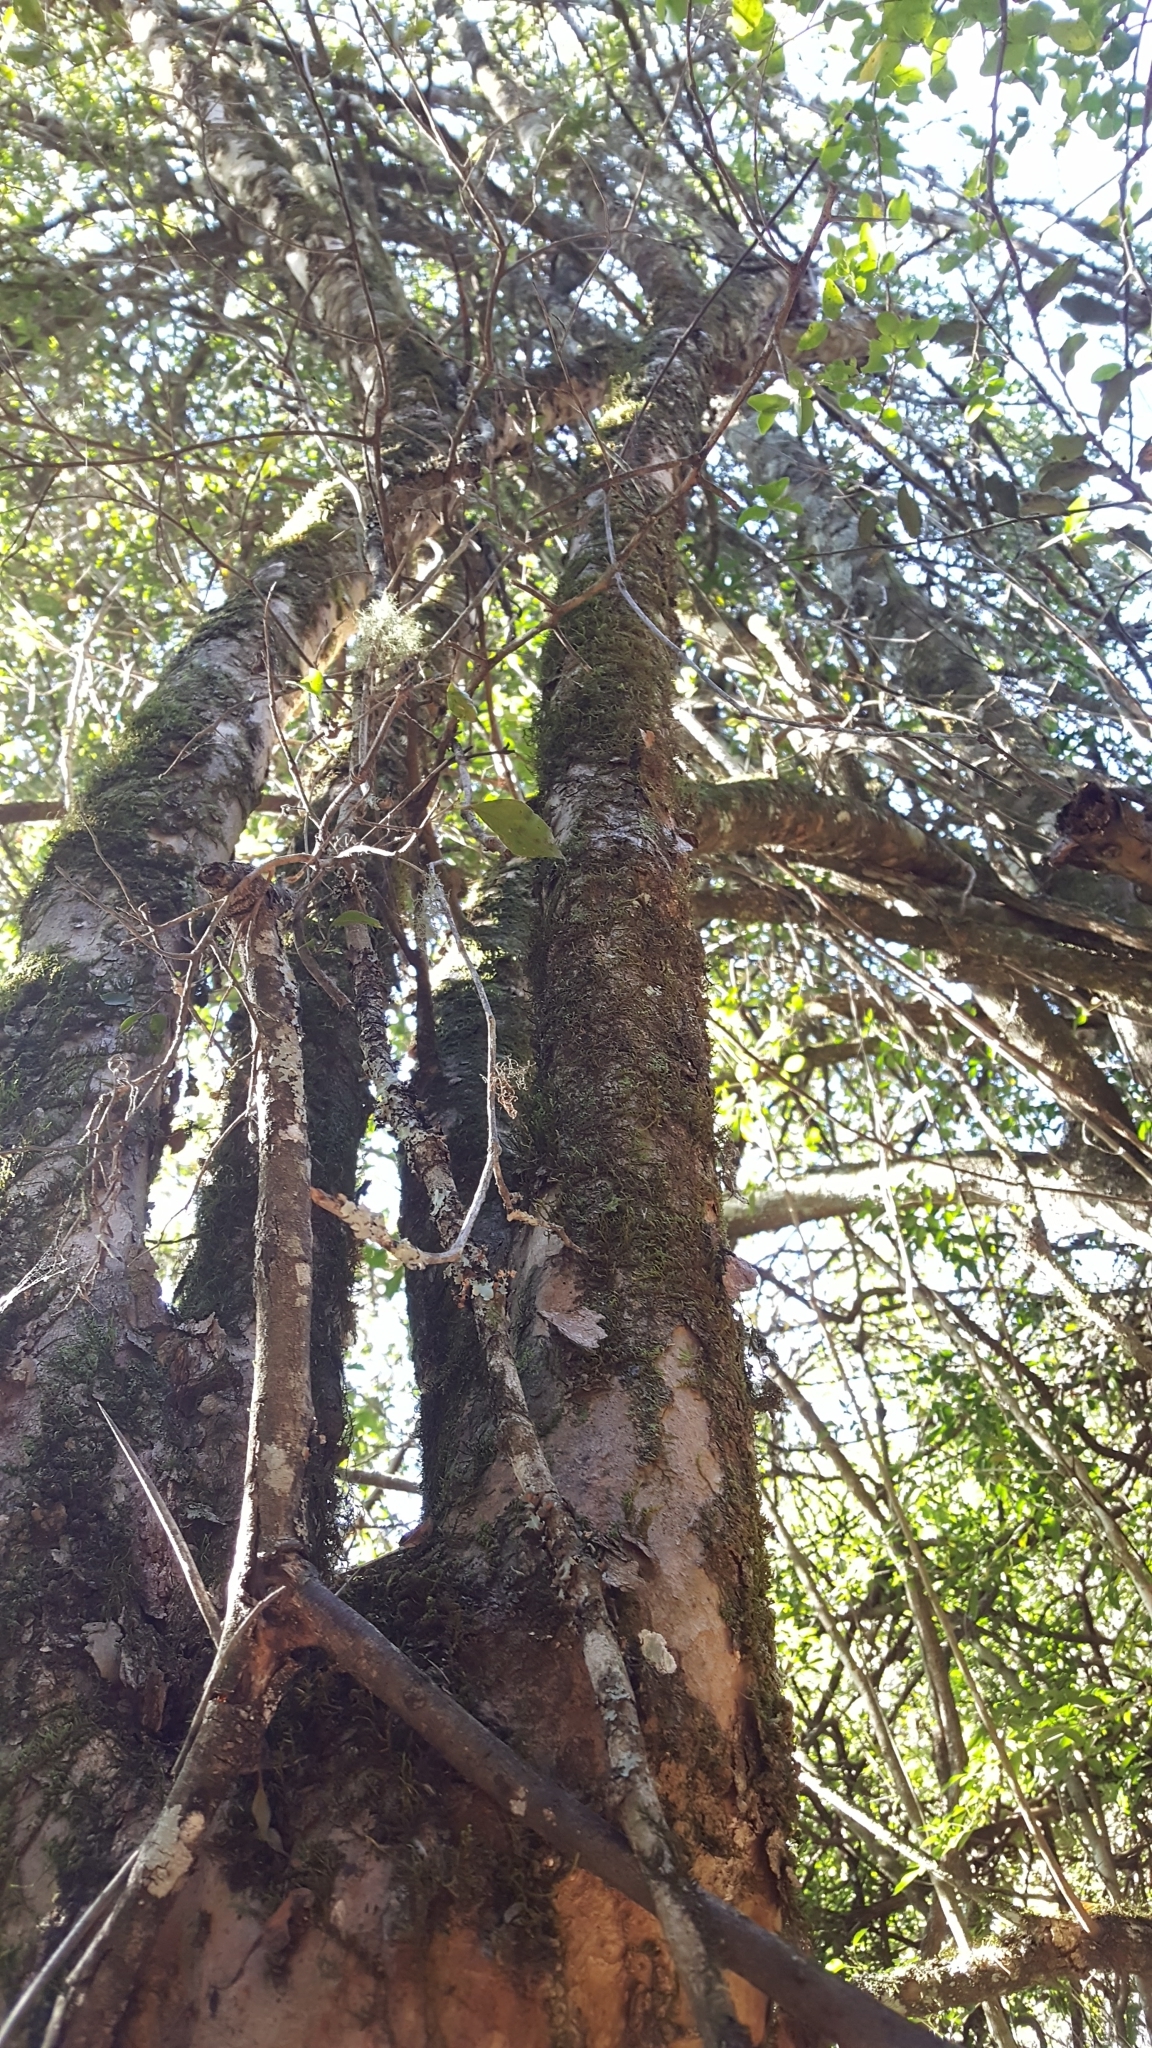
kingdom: Plantae
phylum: Tracheophyta
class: Magnoliopsida
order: Malpighiales
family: Salicaceae
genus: Scolopia
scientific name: Scolopia zeyheri
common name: Thorn pear
